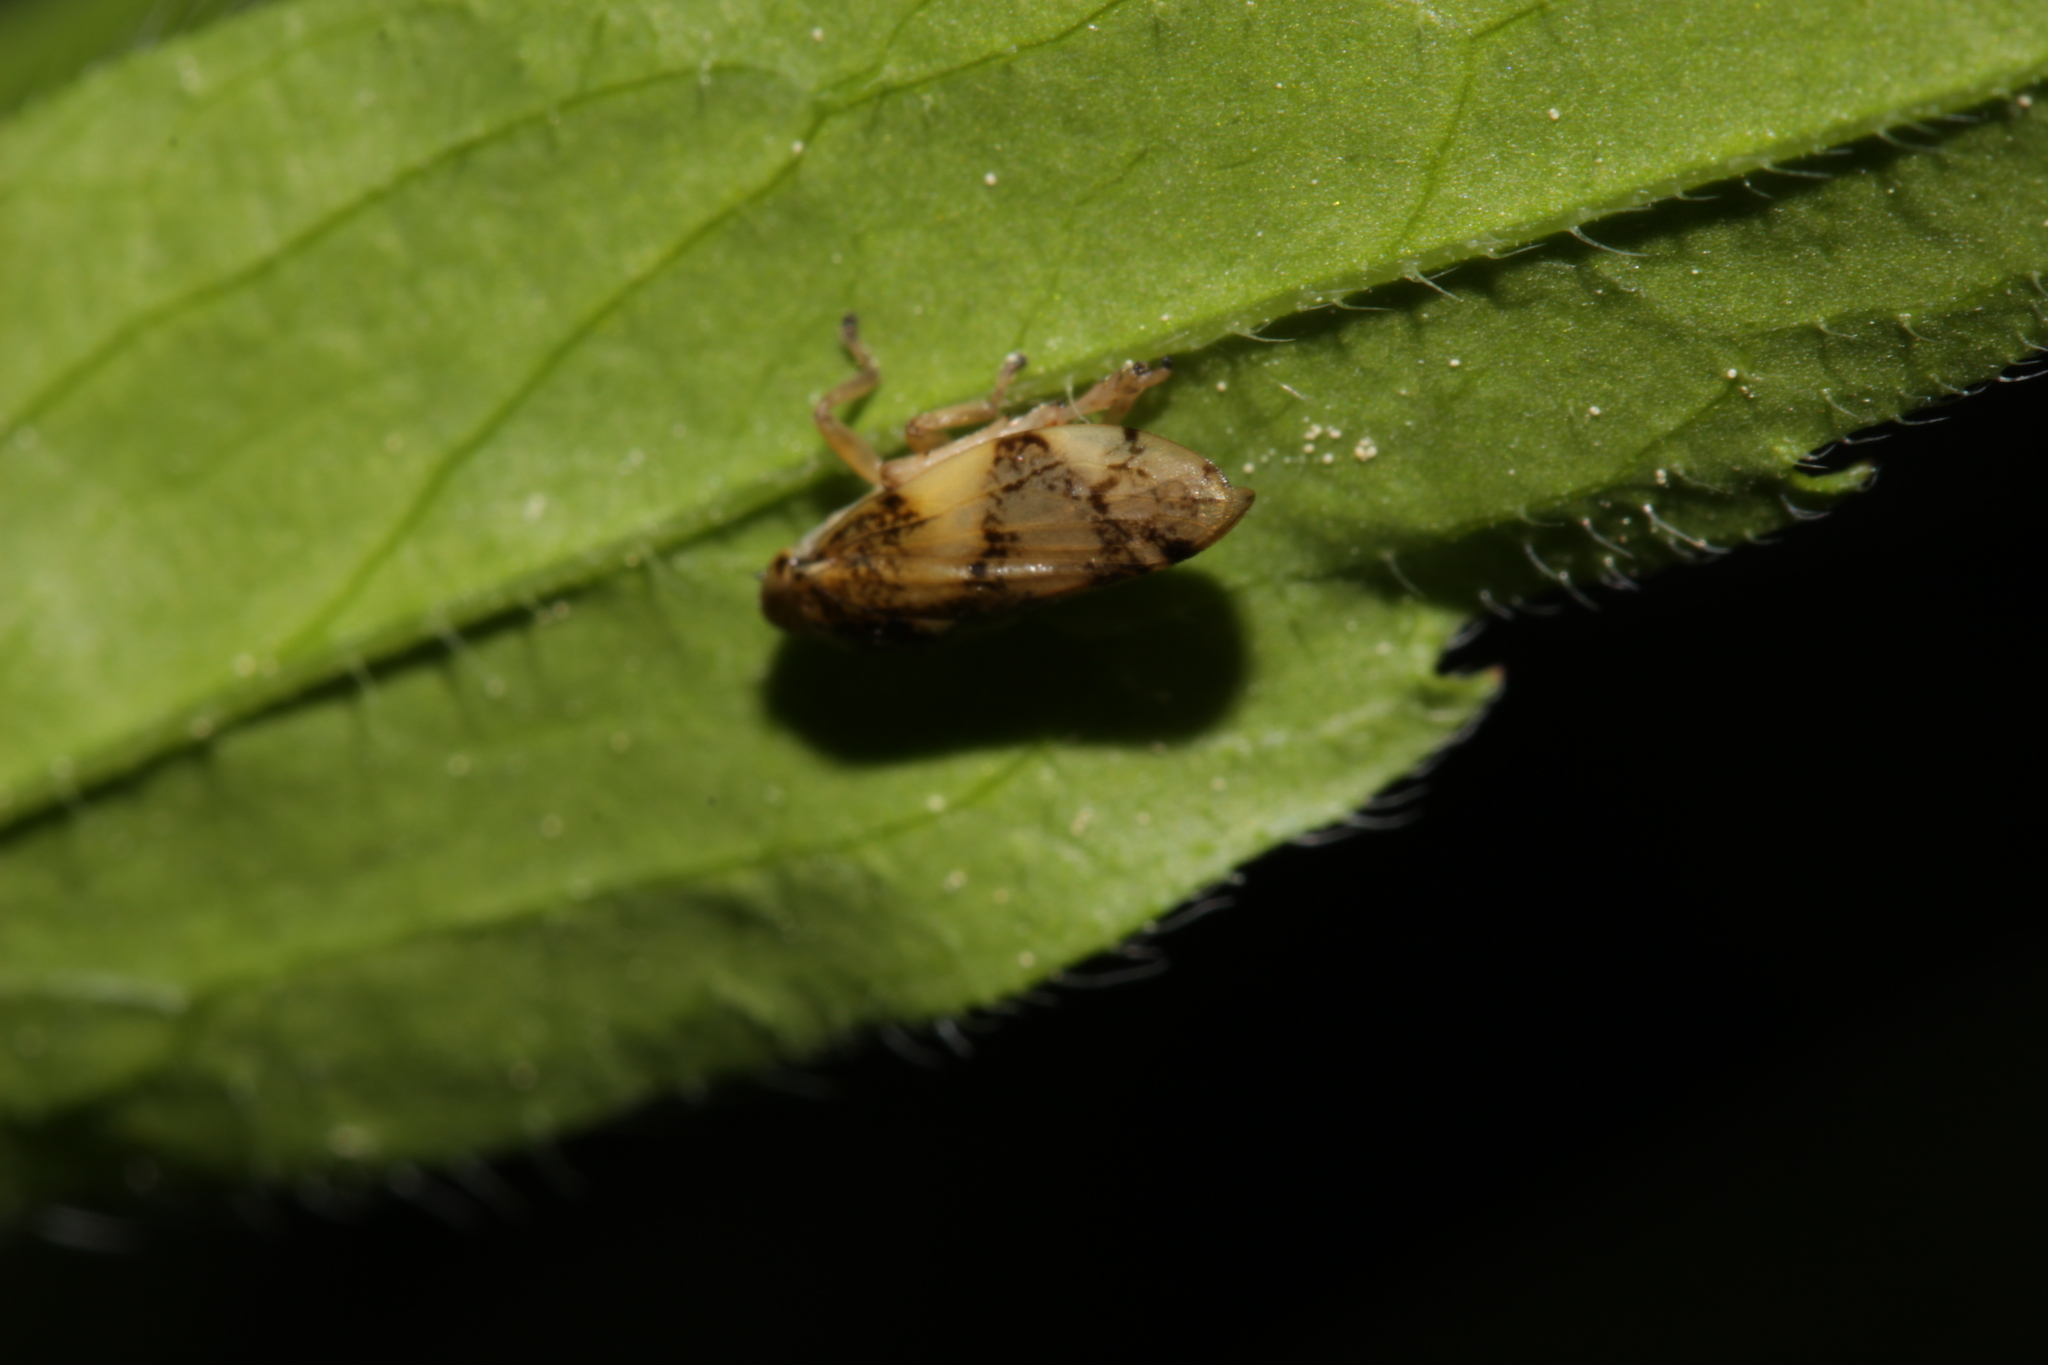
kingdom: Animalia
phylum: Arthropoda
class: Insecta
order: Hemiptera
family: Aphrophoridae
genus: Philaenus
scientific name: Philaenus spumarius
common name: Meadow spittlebug
